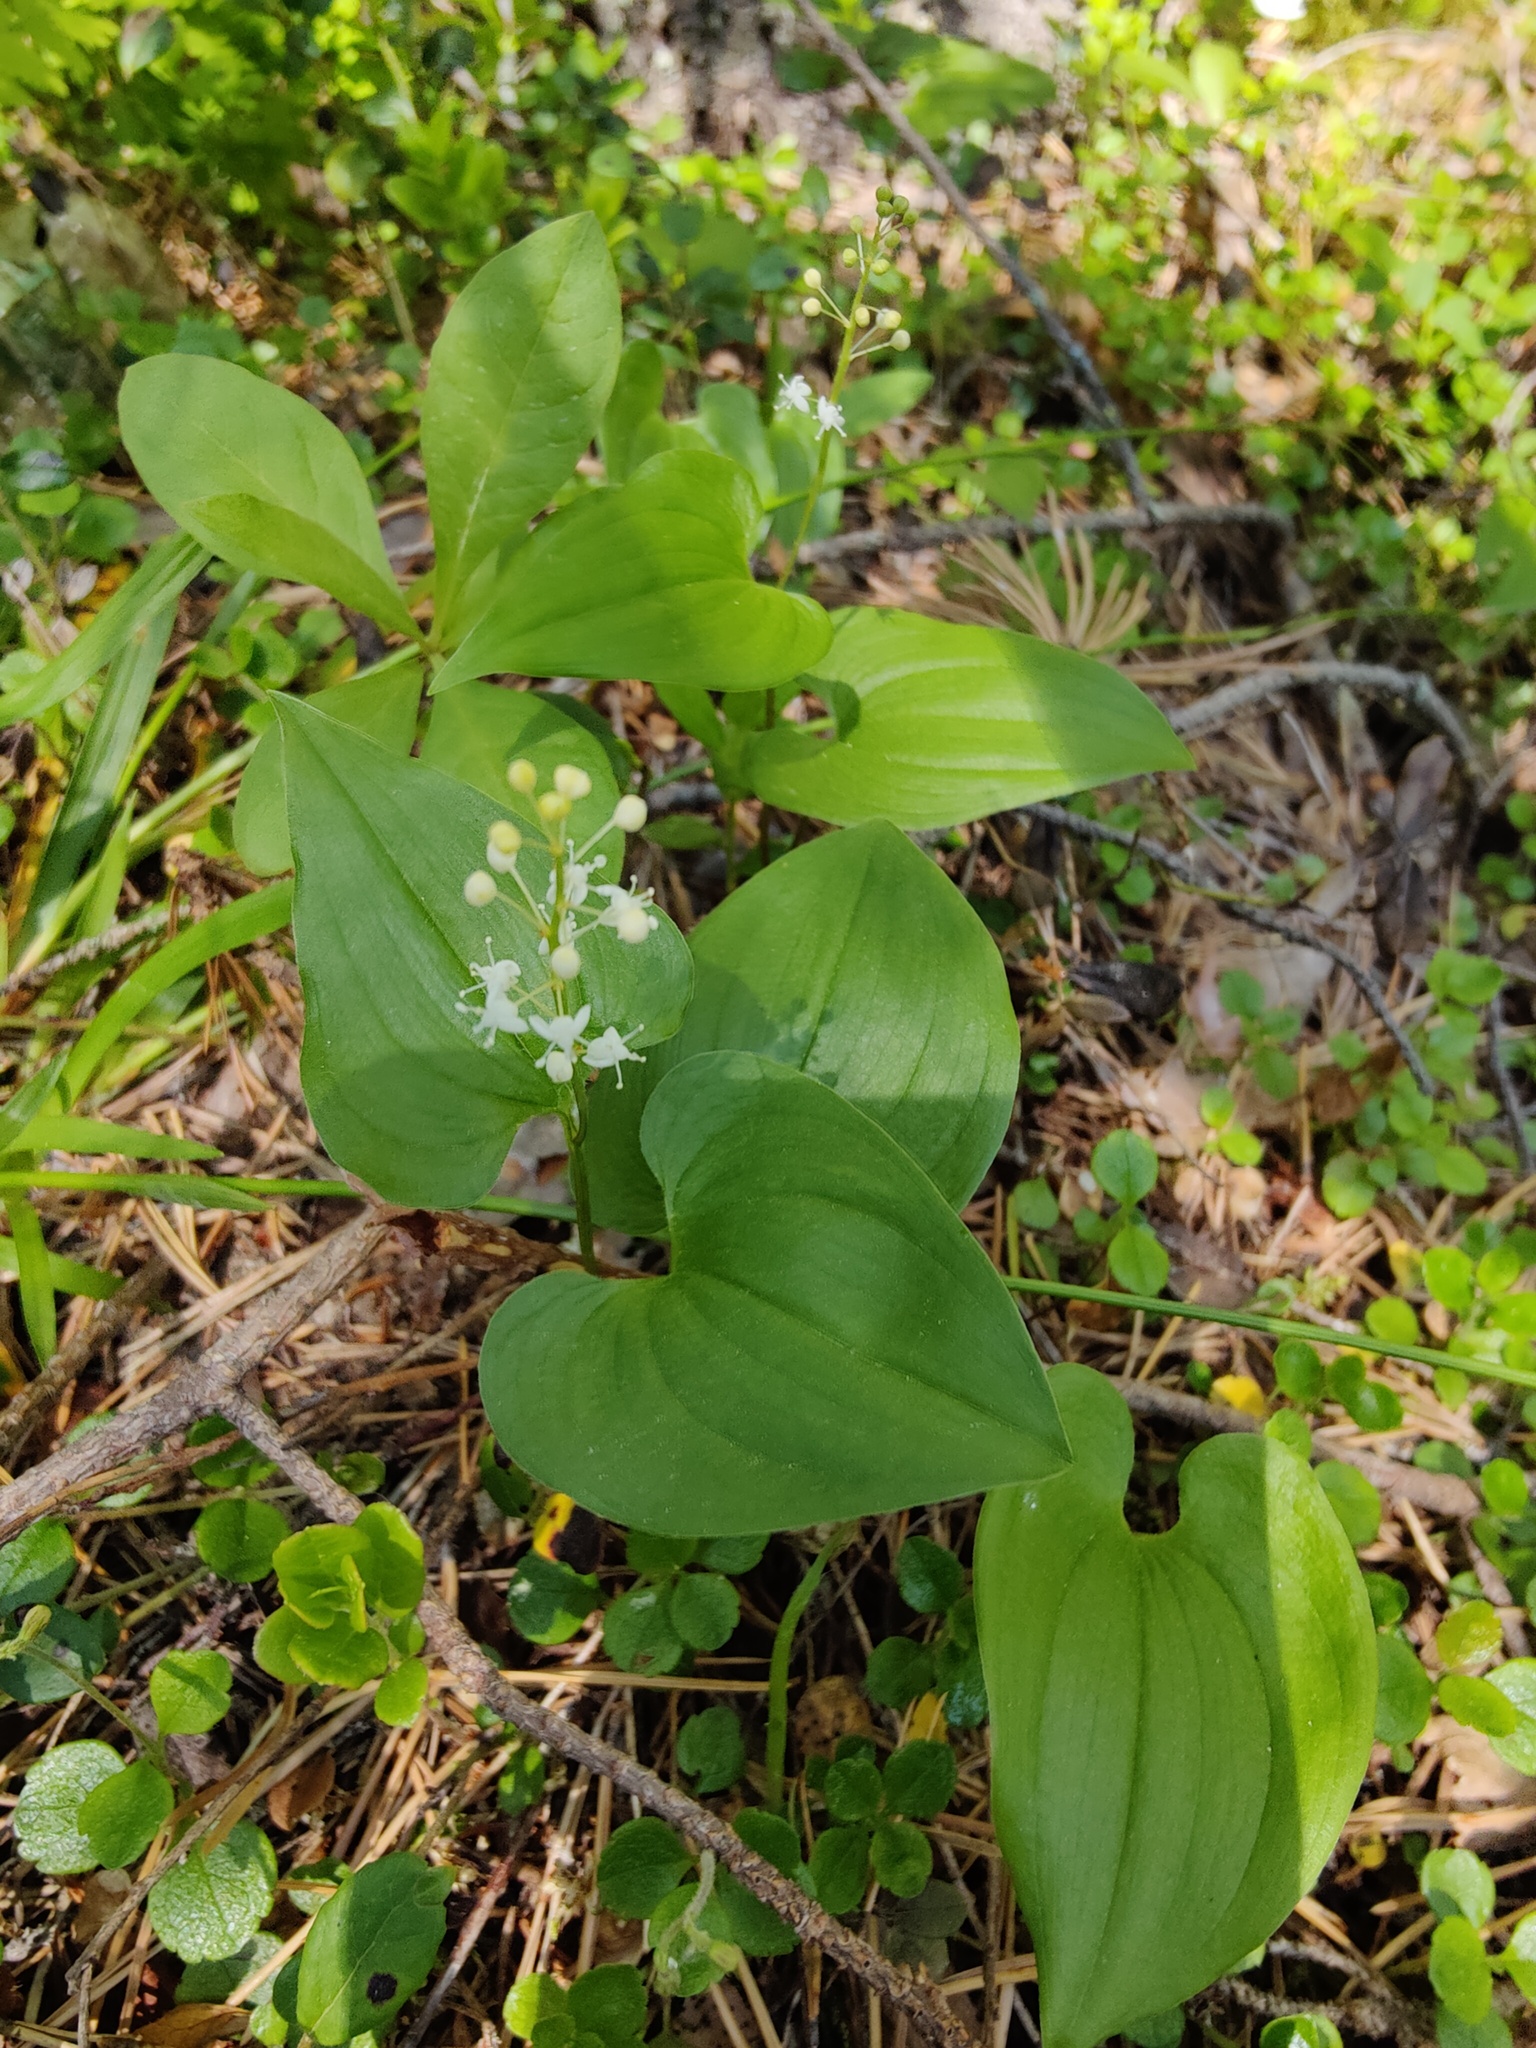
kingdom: Plantae
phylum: Tracheophyta
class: Liliopsida
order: Asparagales
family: Asparagaceae
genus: Maianthemum
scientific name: Maianthemum bifolium
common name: May lily
